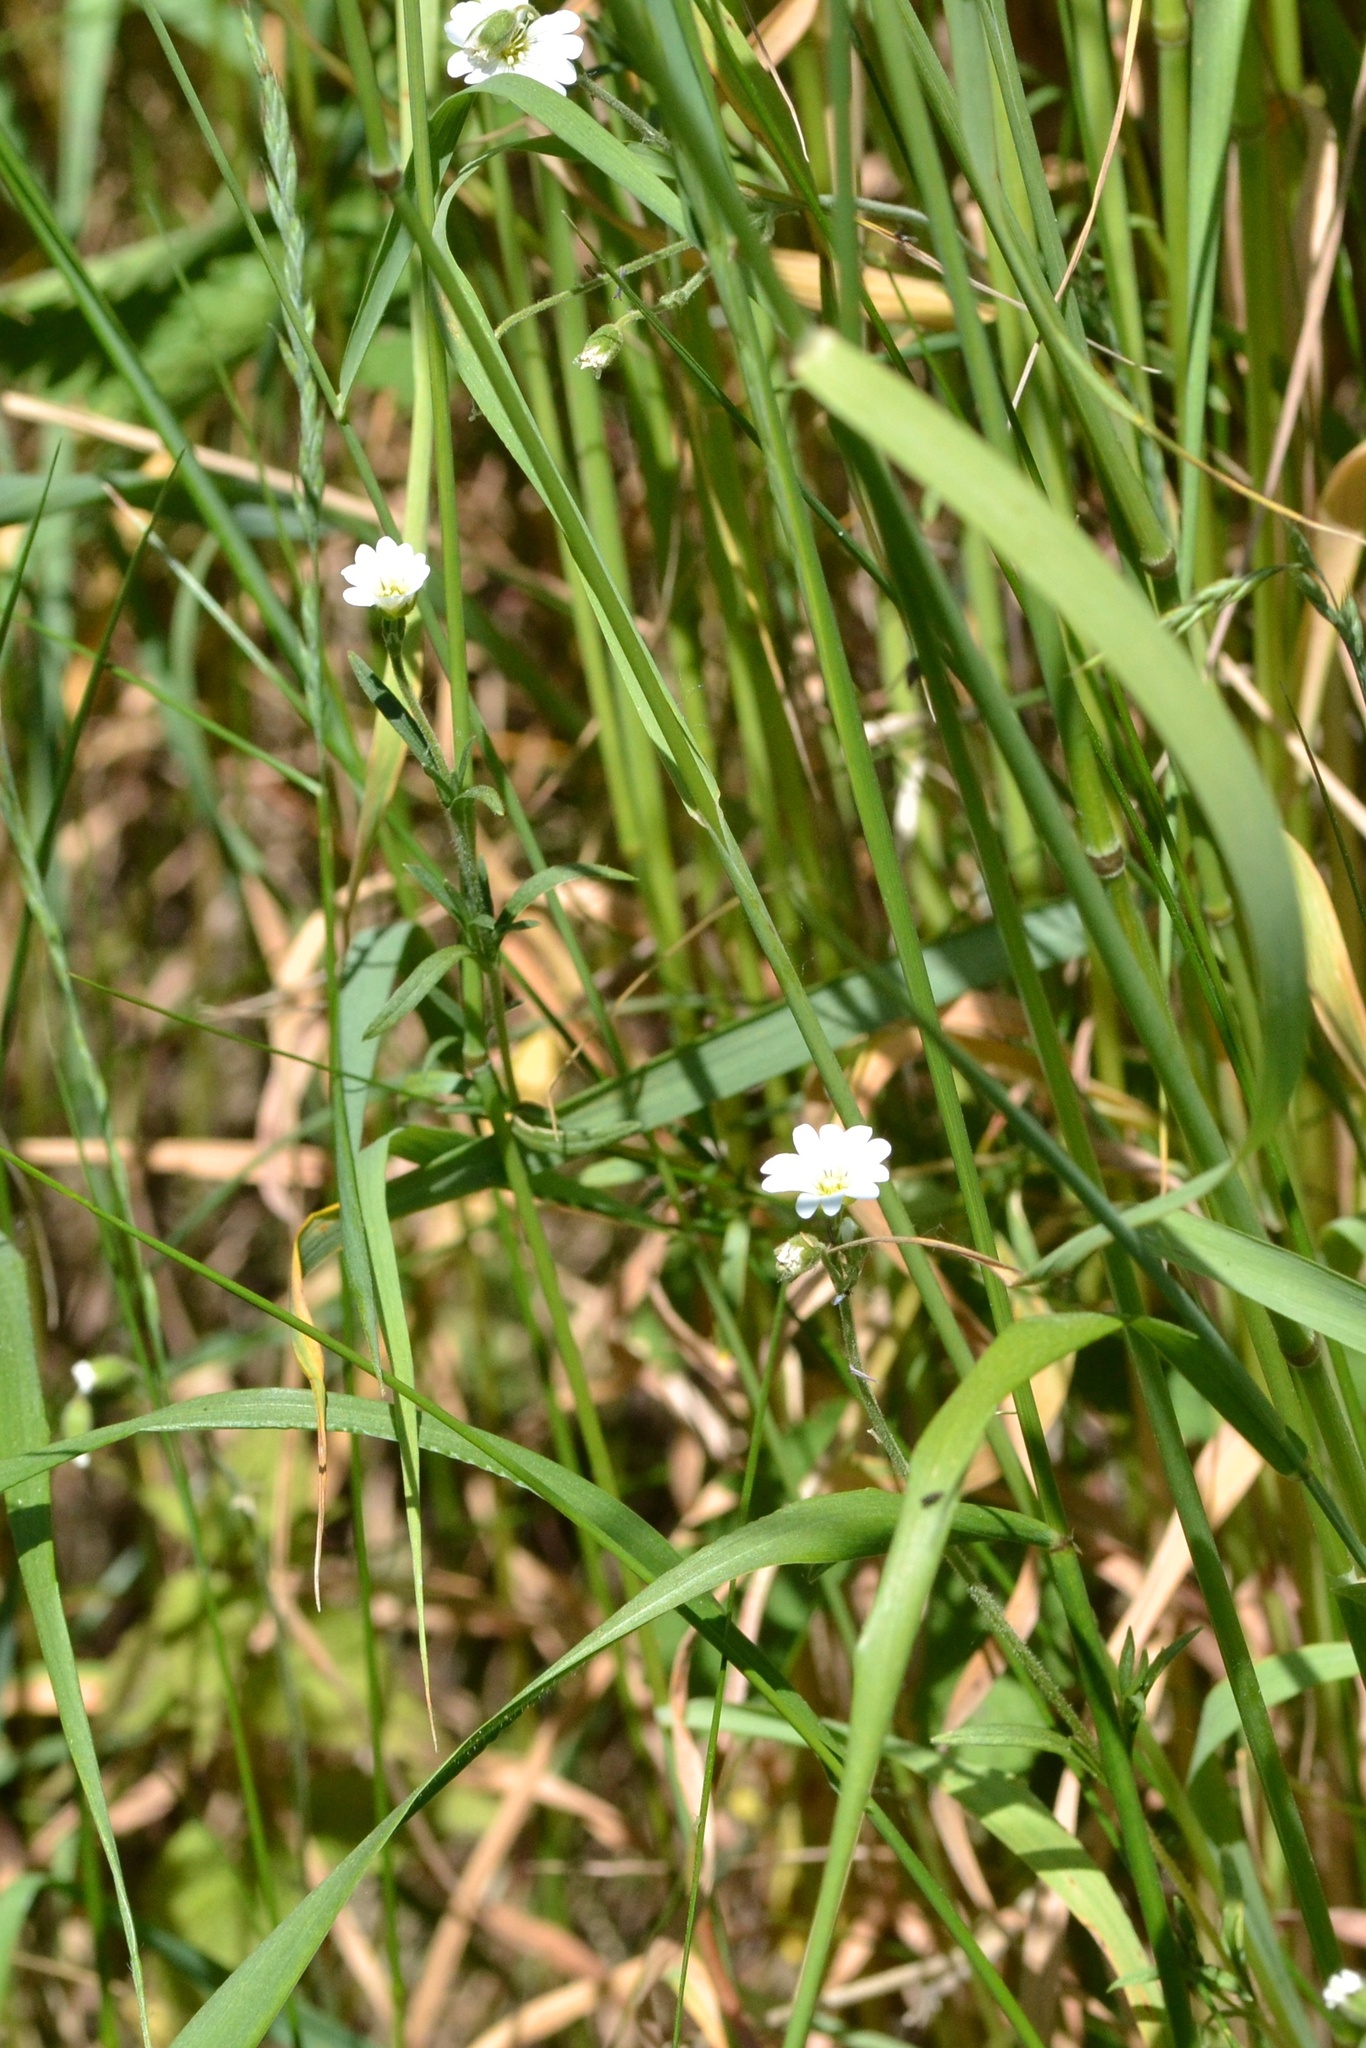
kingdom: Plantae
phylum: Tracheophyta
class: Magnoliopsida
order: Caryophyllales
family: Caryophyllaceae
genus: Cerastium
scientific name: Cerastium arvense
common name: Field mouse-ear
